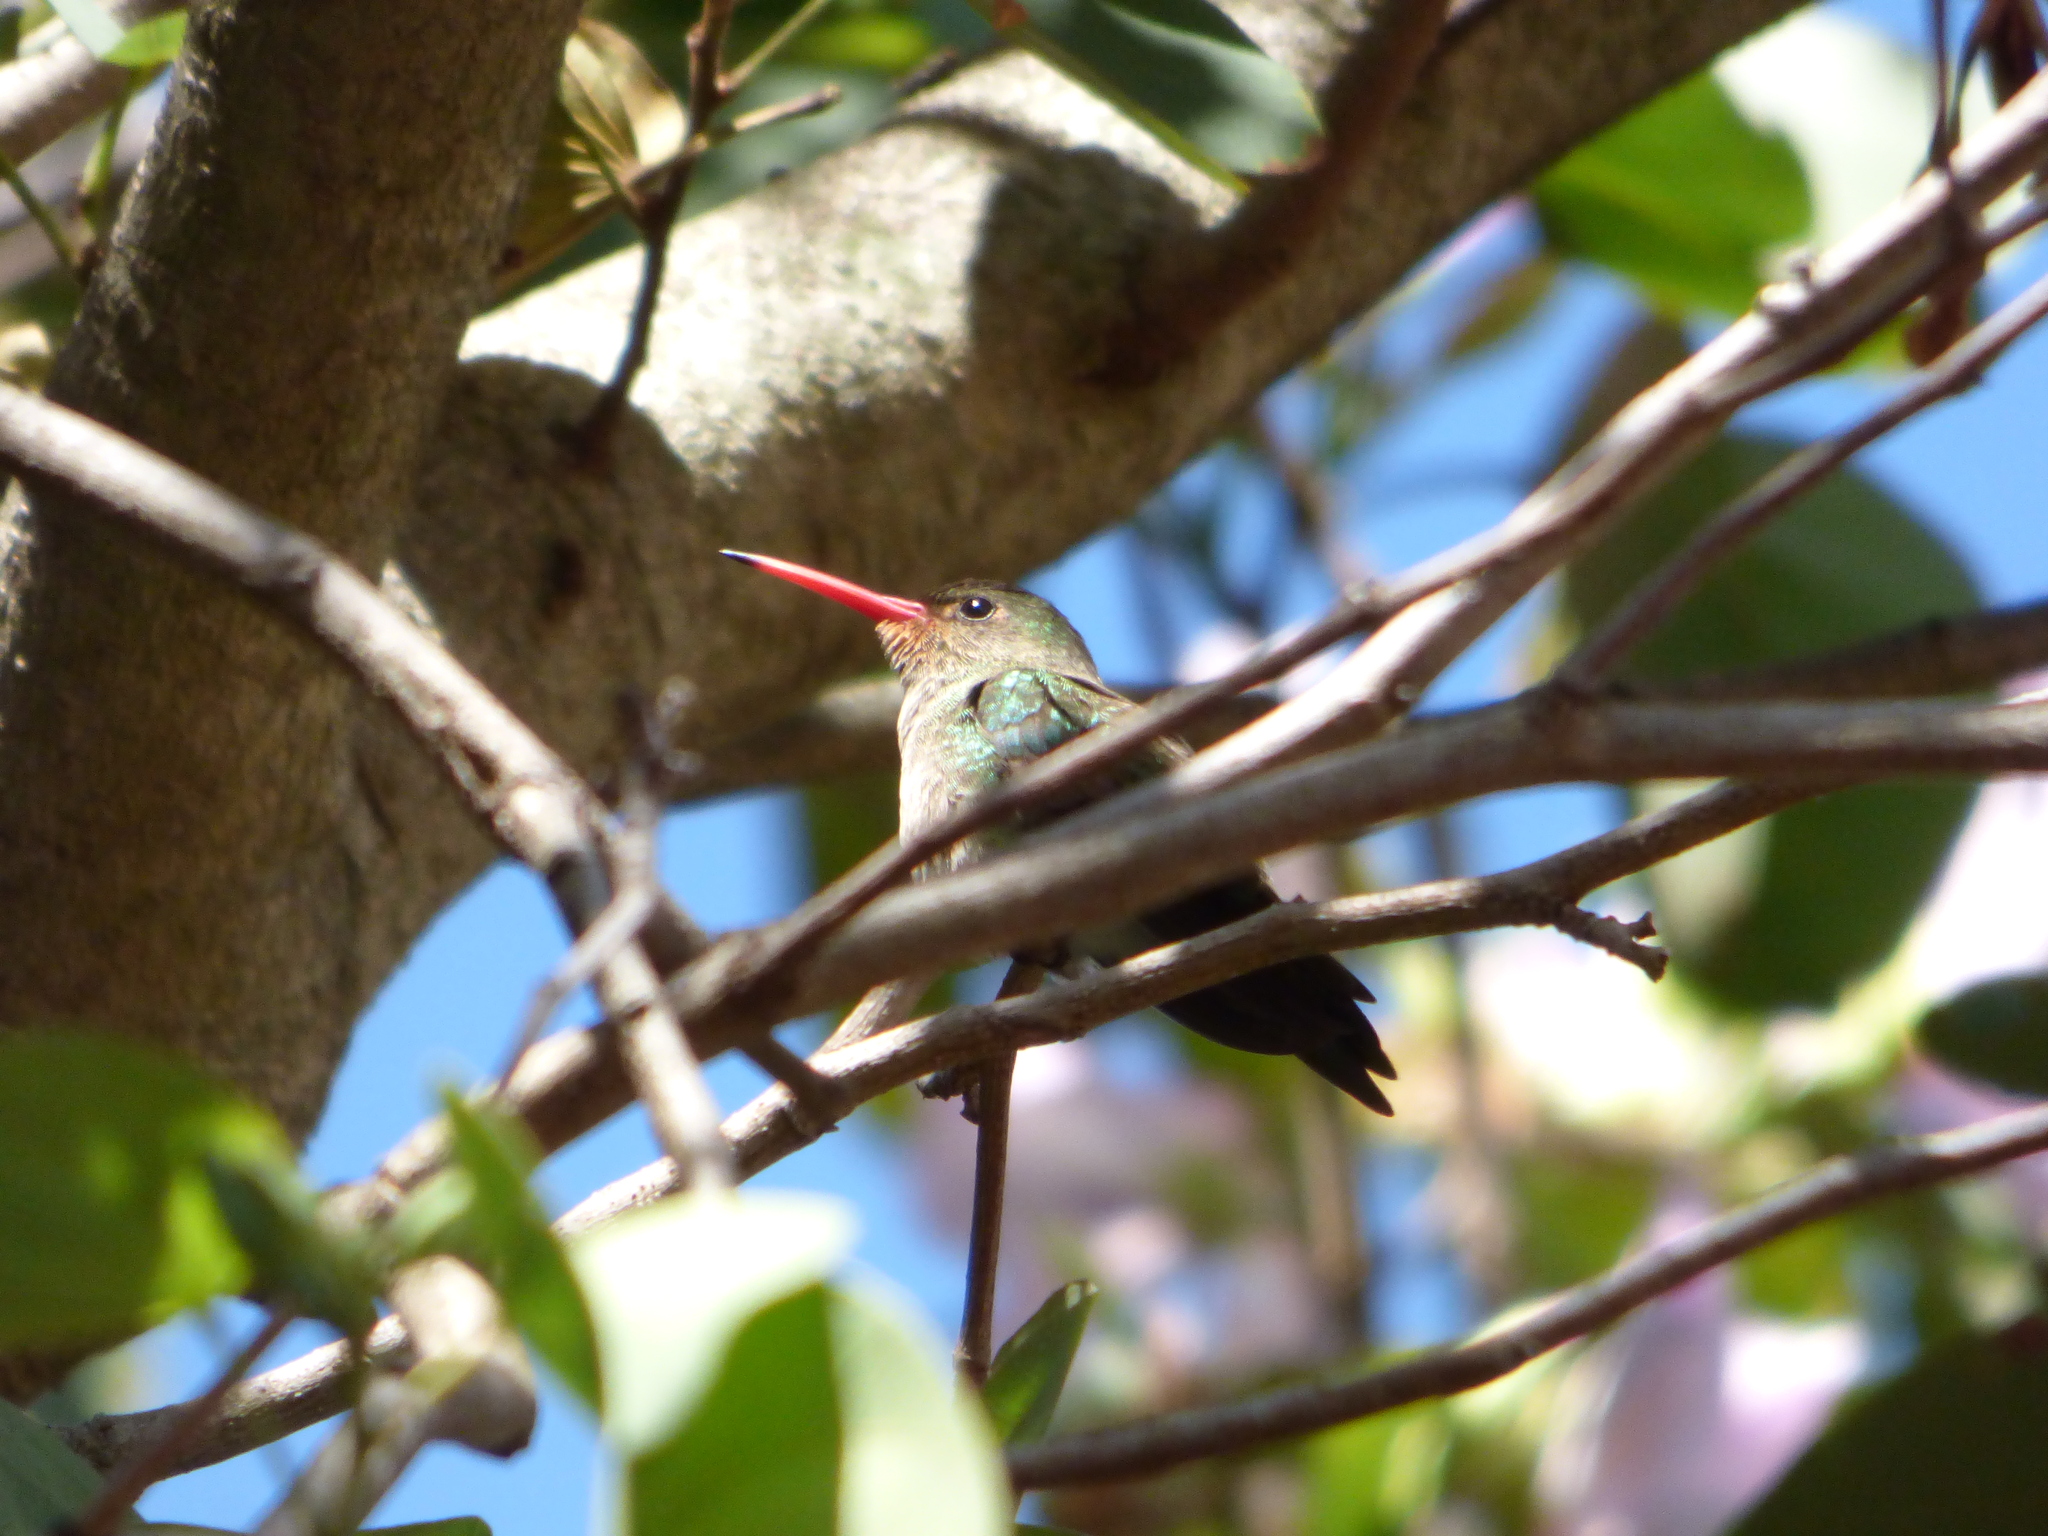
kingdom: Animalia
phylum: Chordata
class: Aves
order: Apodiformes
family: Trochilidae
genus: Hylocharis
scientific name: Hylocharis chrysura
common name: Gilded sapphire
